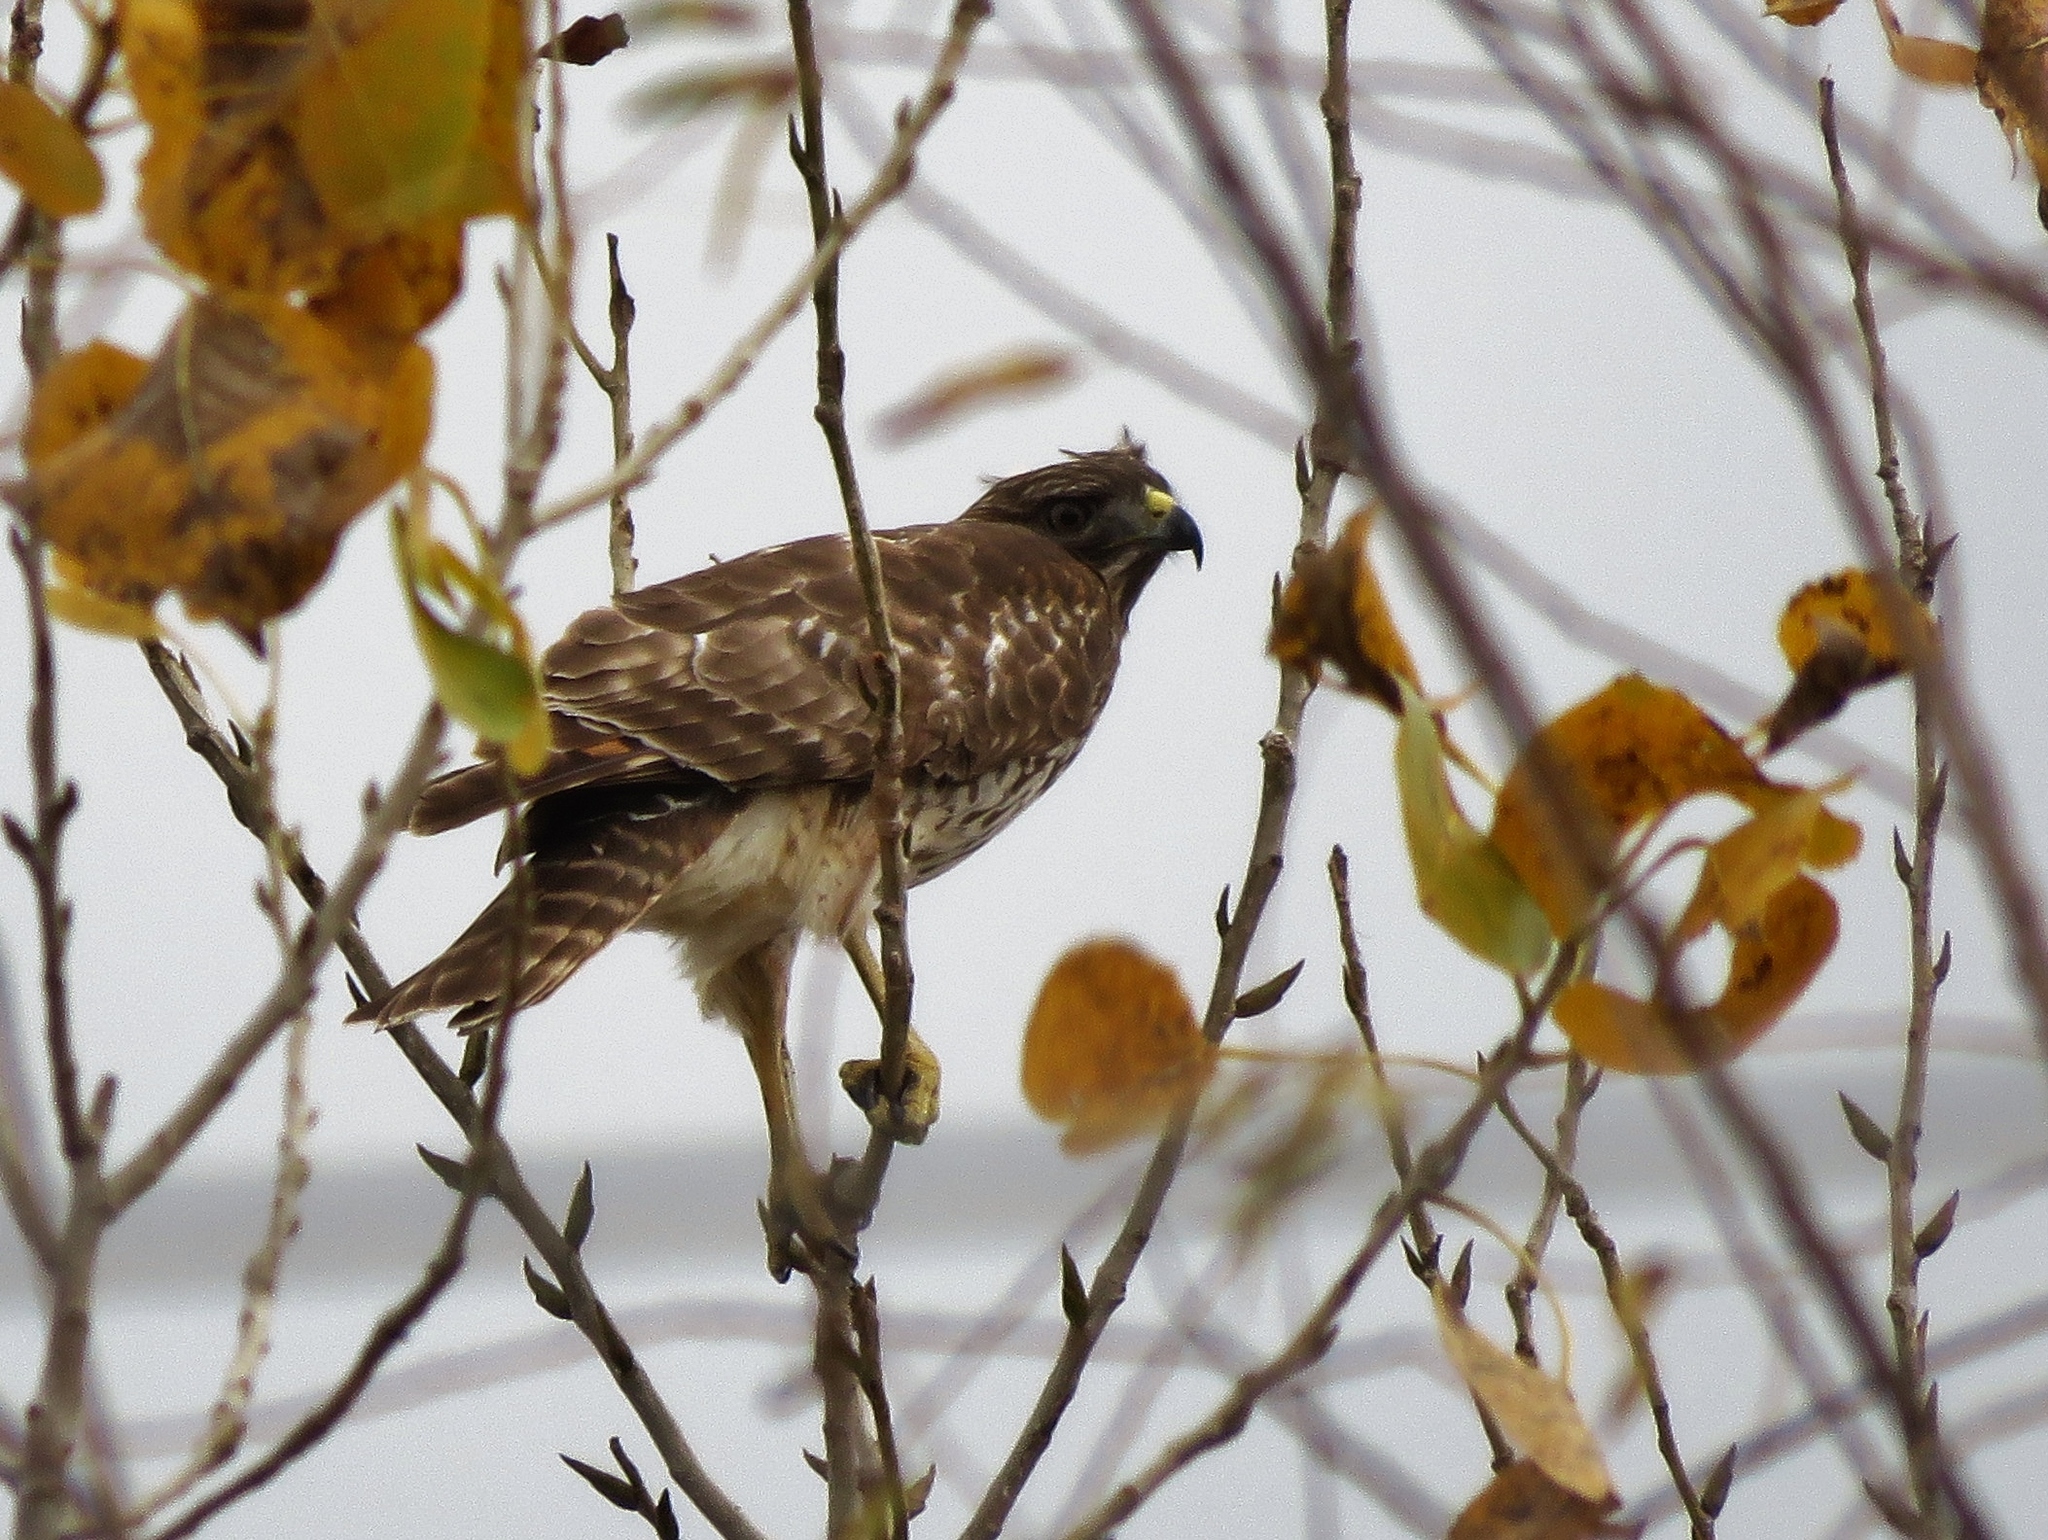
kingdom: Animalia
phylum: Chordata
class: Aves
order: Accipitriformes
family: Accipitridae
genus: Buteo
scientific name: Buteo lineatus
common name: Red-shouldered hawk
